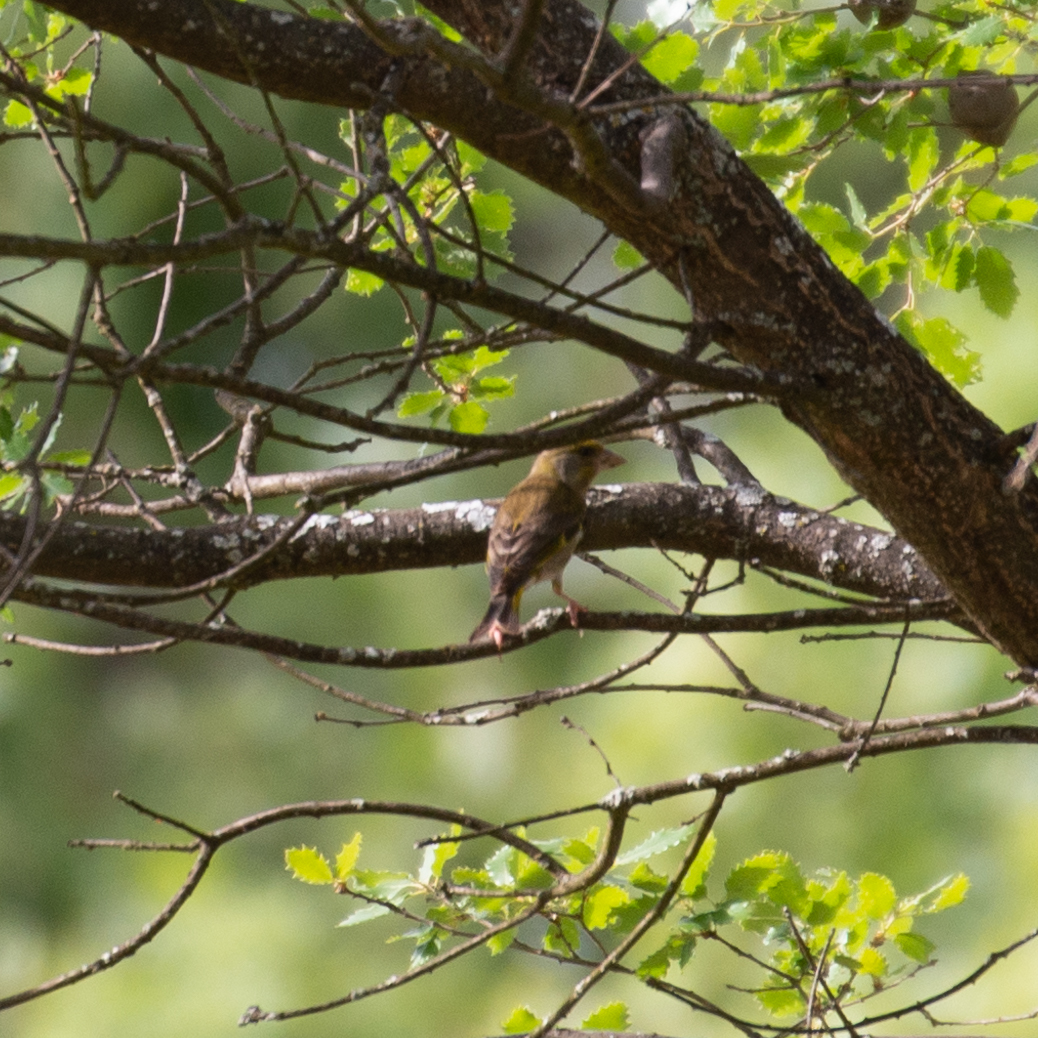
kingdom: Plantae
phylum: Tracheophyta
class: Liliopsida
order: Poales
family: Poaceae
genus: Chloris
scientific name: Chloris chloris
